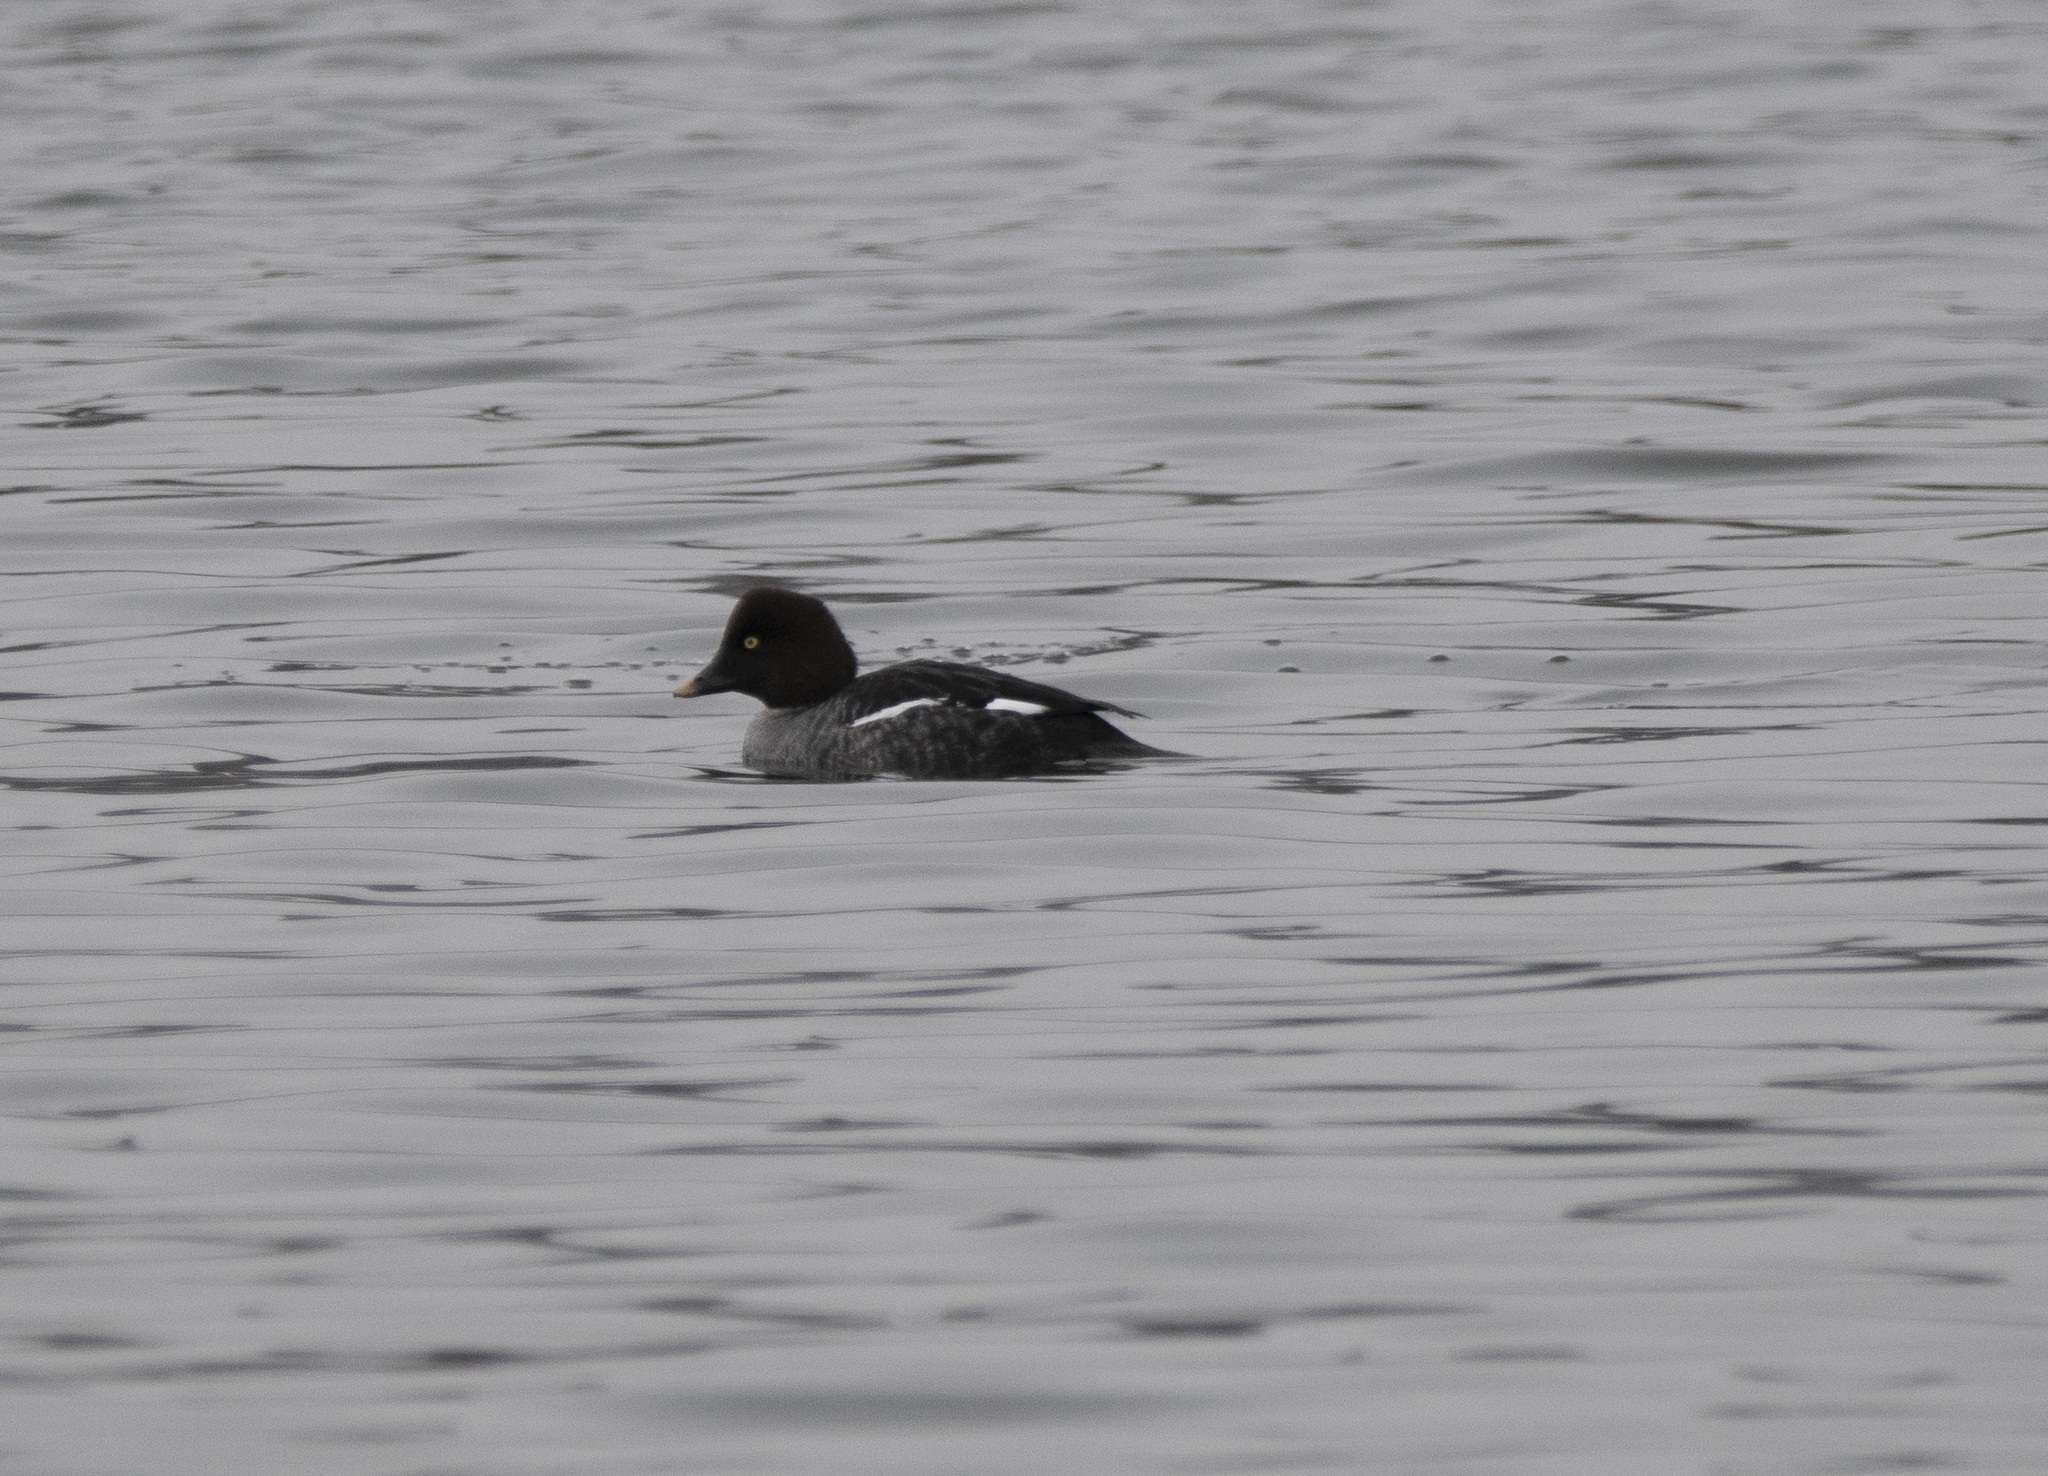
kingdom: Animalia
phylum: Chordata
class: Aves
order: Anseriformes
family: Anatidae
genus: Bucephala
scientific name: Bucephala clangula
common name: Common goldeneye
